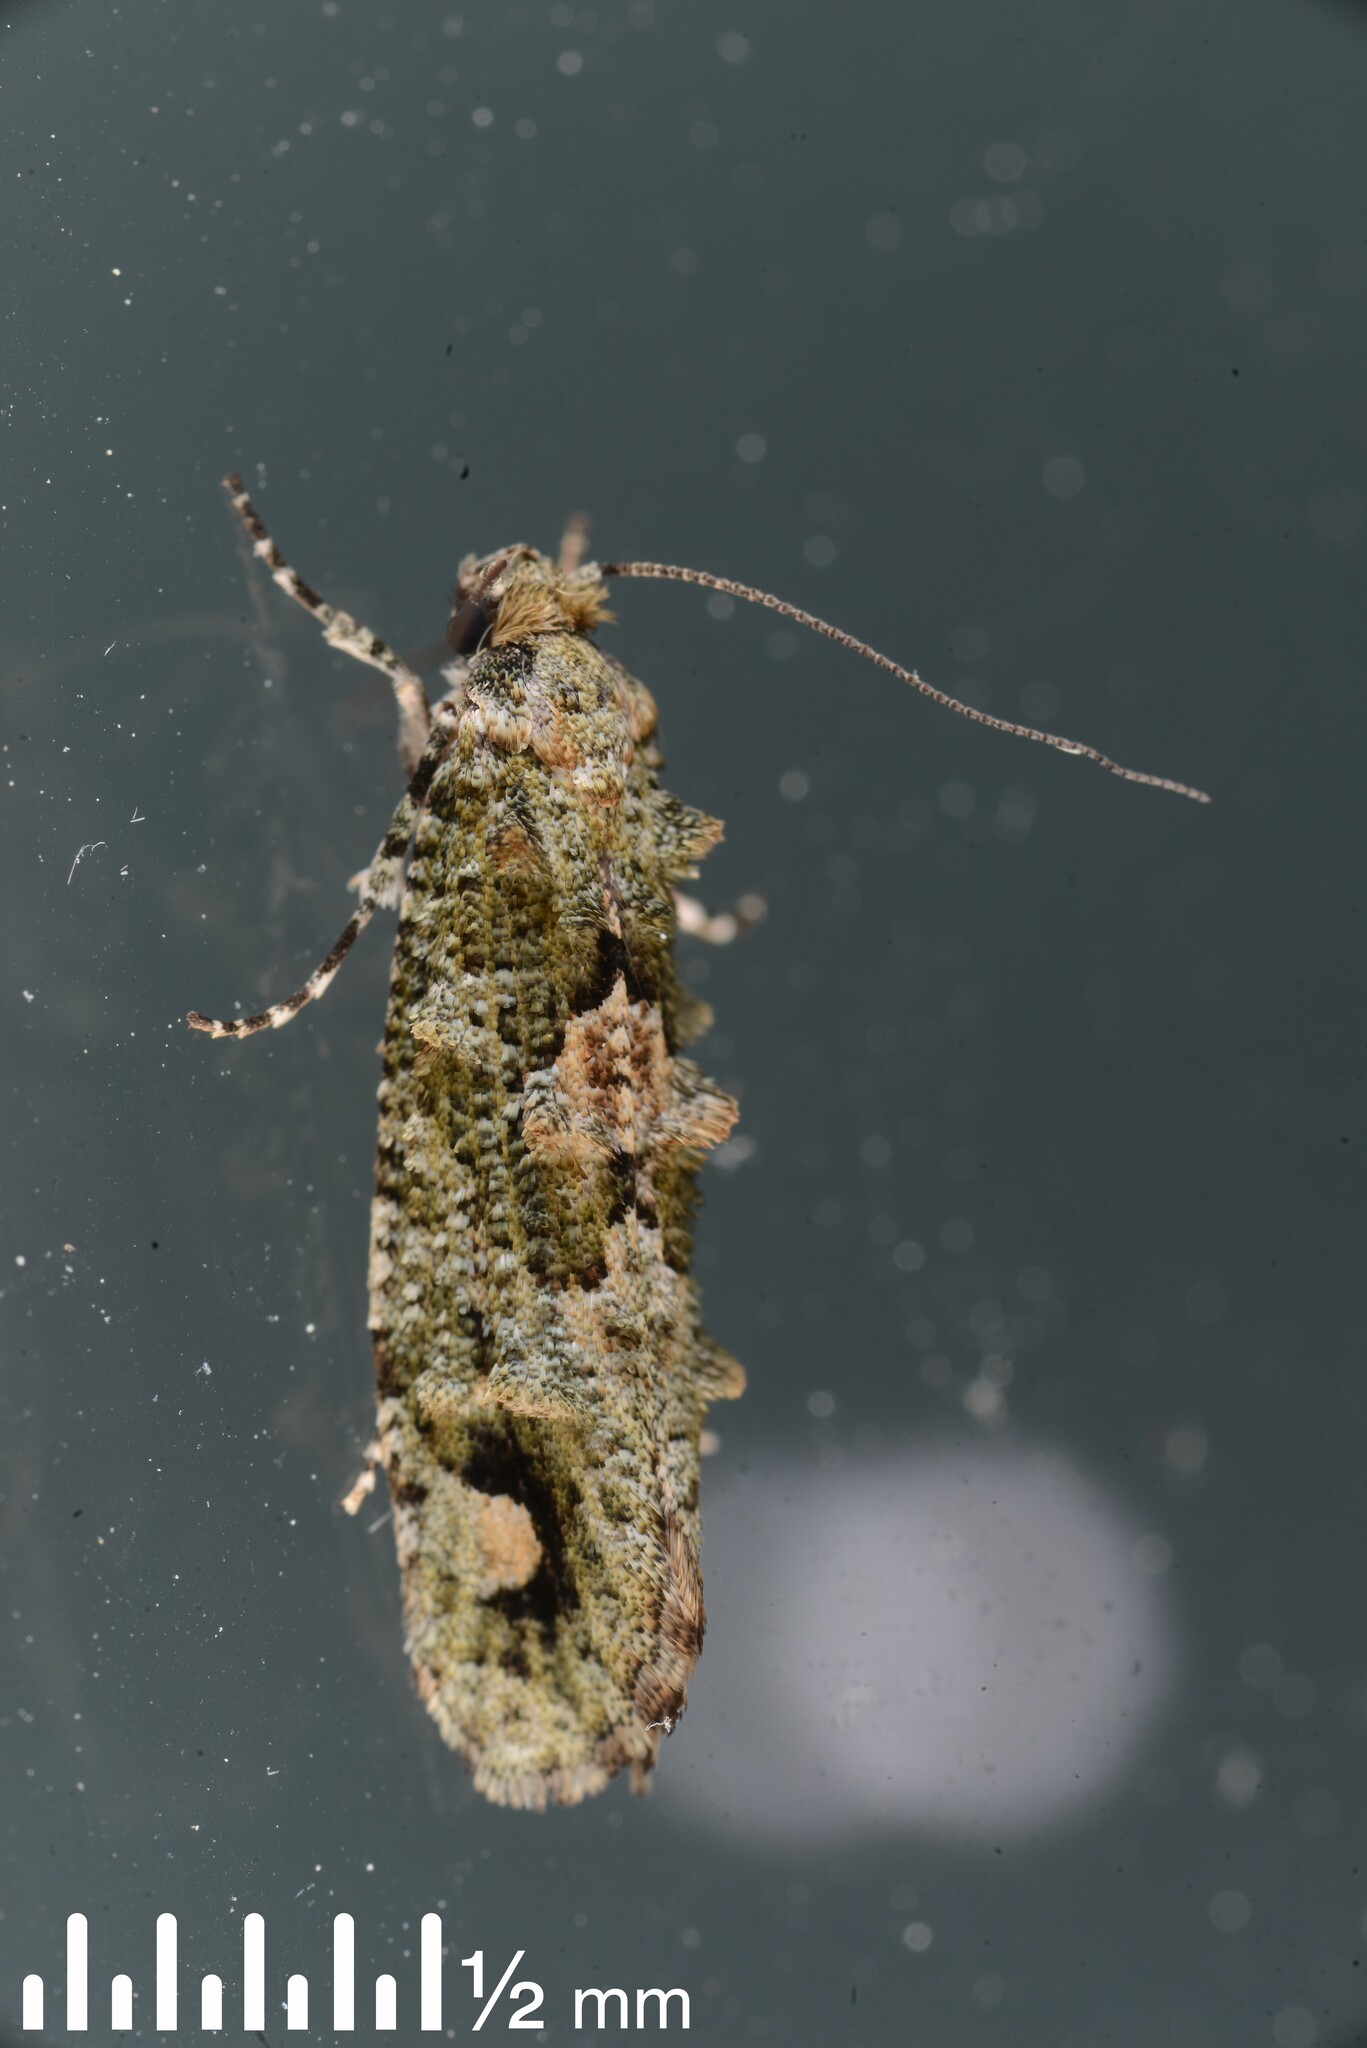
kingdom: Animalia
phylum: Arthropoda
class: Insecta
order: Lepidoptera
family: Tineidae
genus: Lysiphragma
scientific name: Lysiphragma howesii
